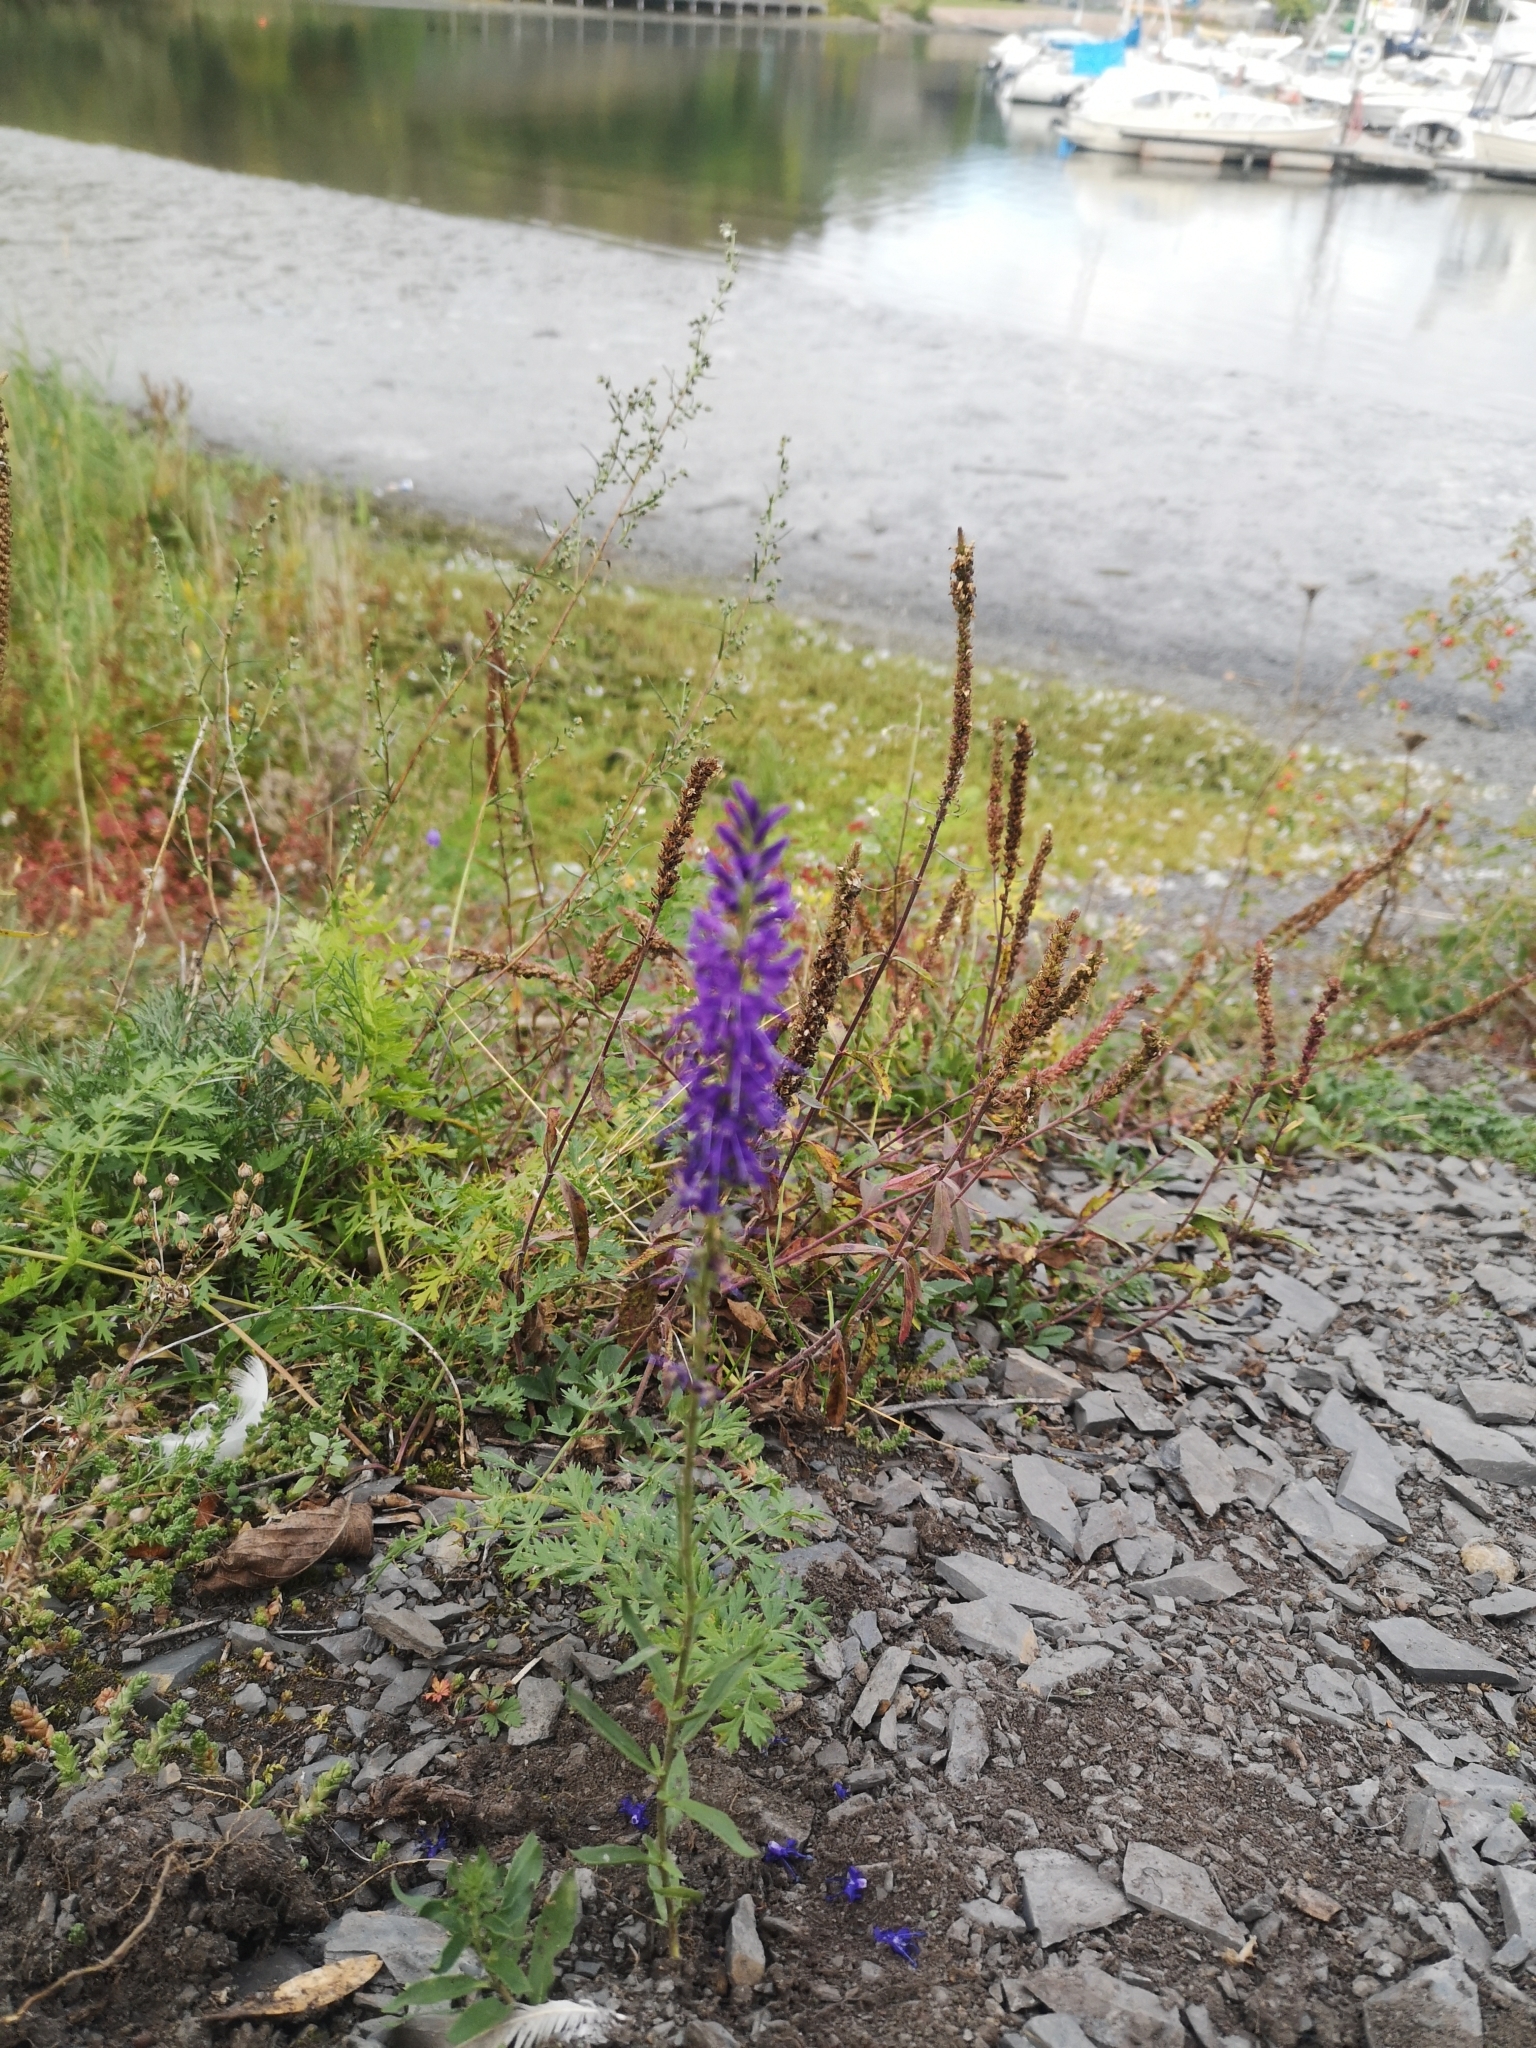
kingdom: Plantae
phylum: Tracheophyta
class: Magnoliopsida
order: Lamiales
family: Plantaginaceae
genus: Veronica
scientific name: Veronica spicata
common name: Spiked speedwell
